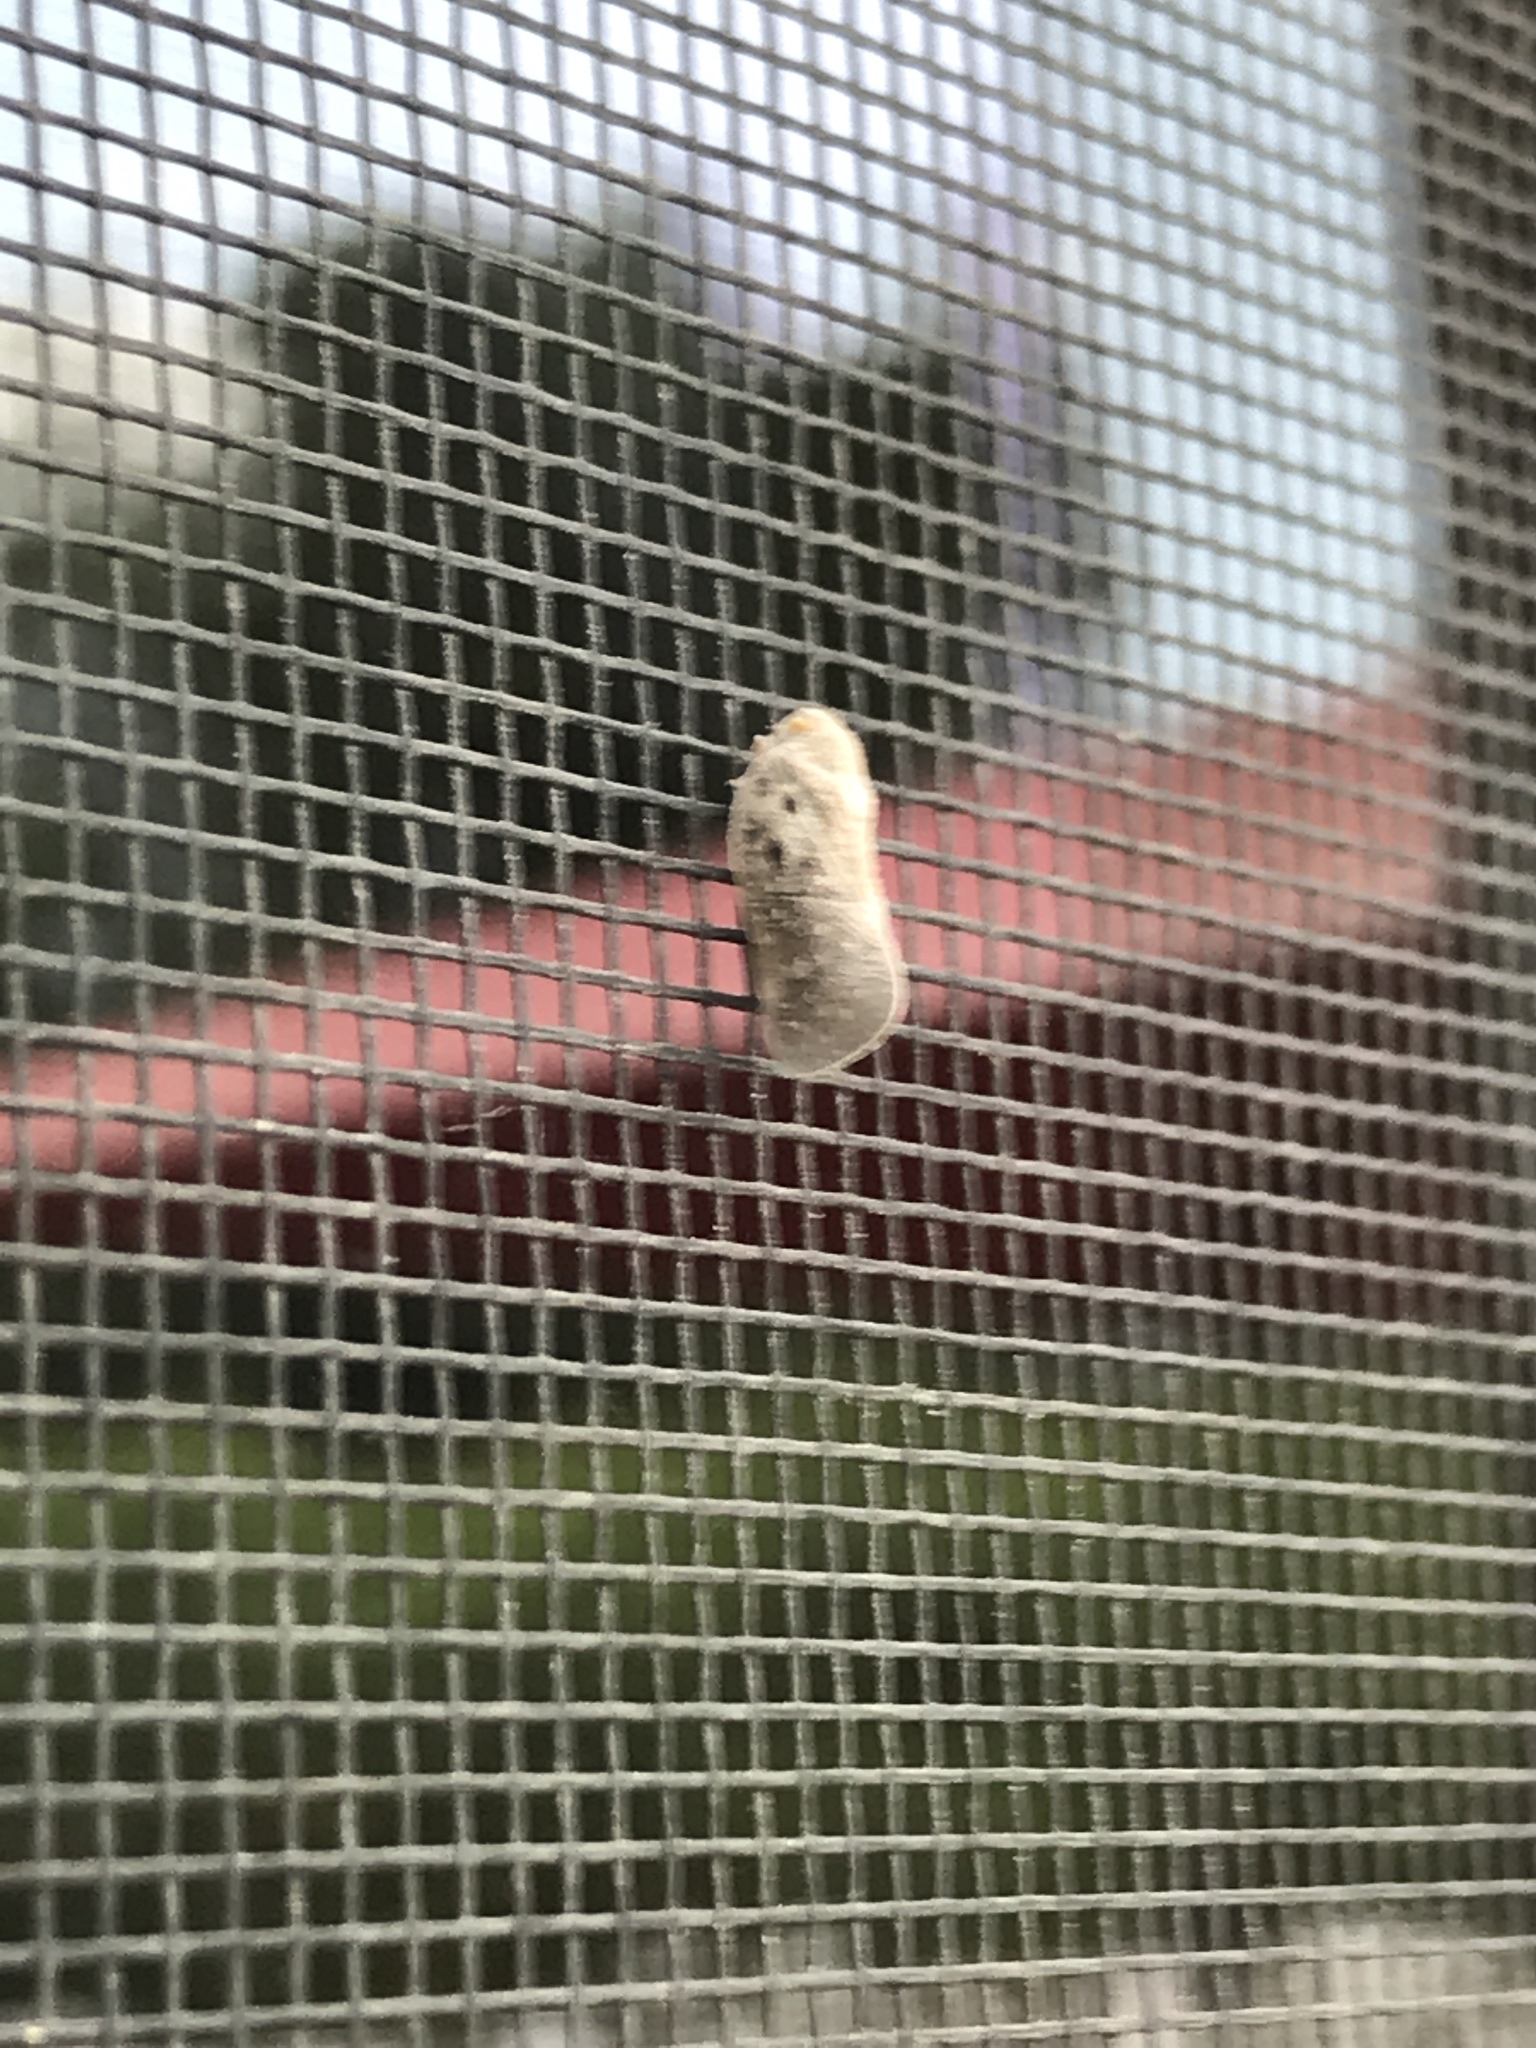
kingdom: Animalia
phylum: Arthropoda
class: Insecta
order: Hemiptera
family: Flatidae
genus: Metcalfa
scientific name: Metcalfa pruinosa
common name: Citrus flatid planthopper
